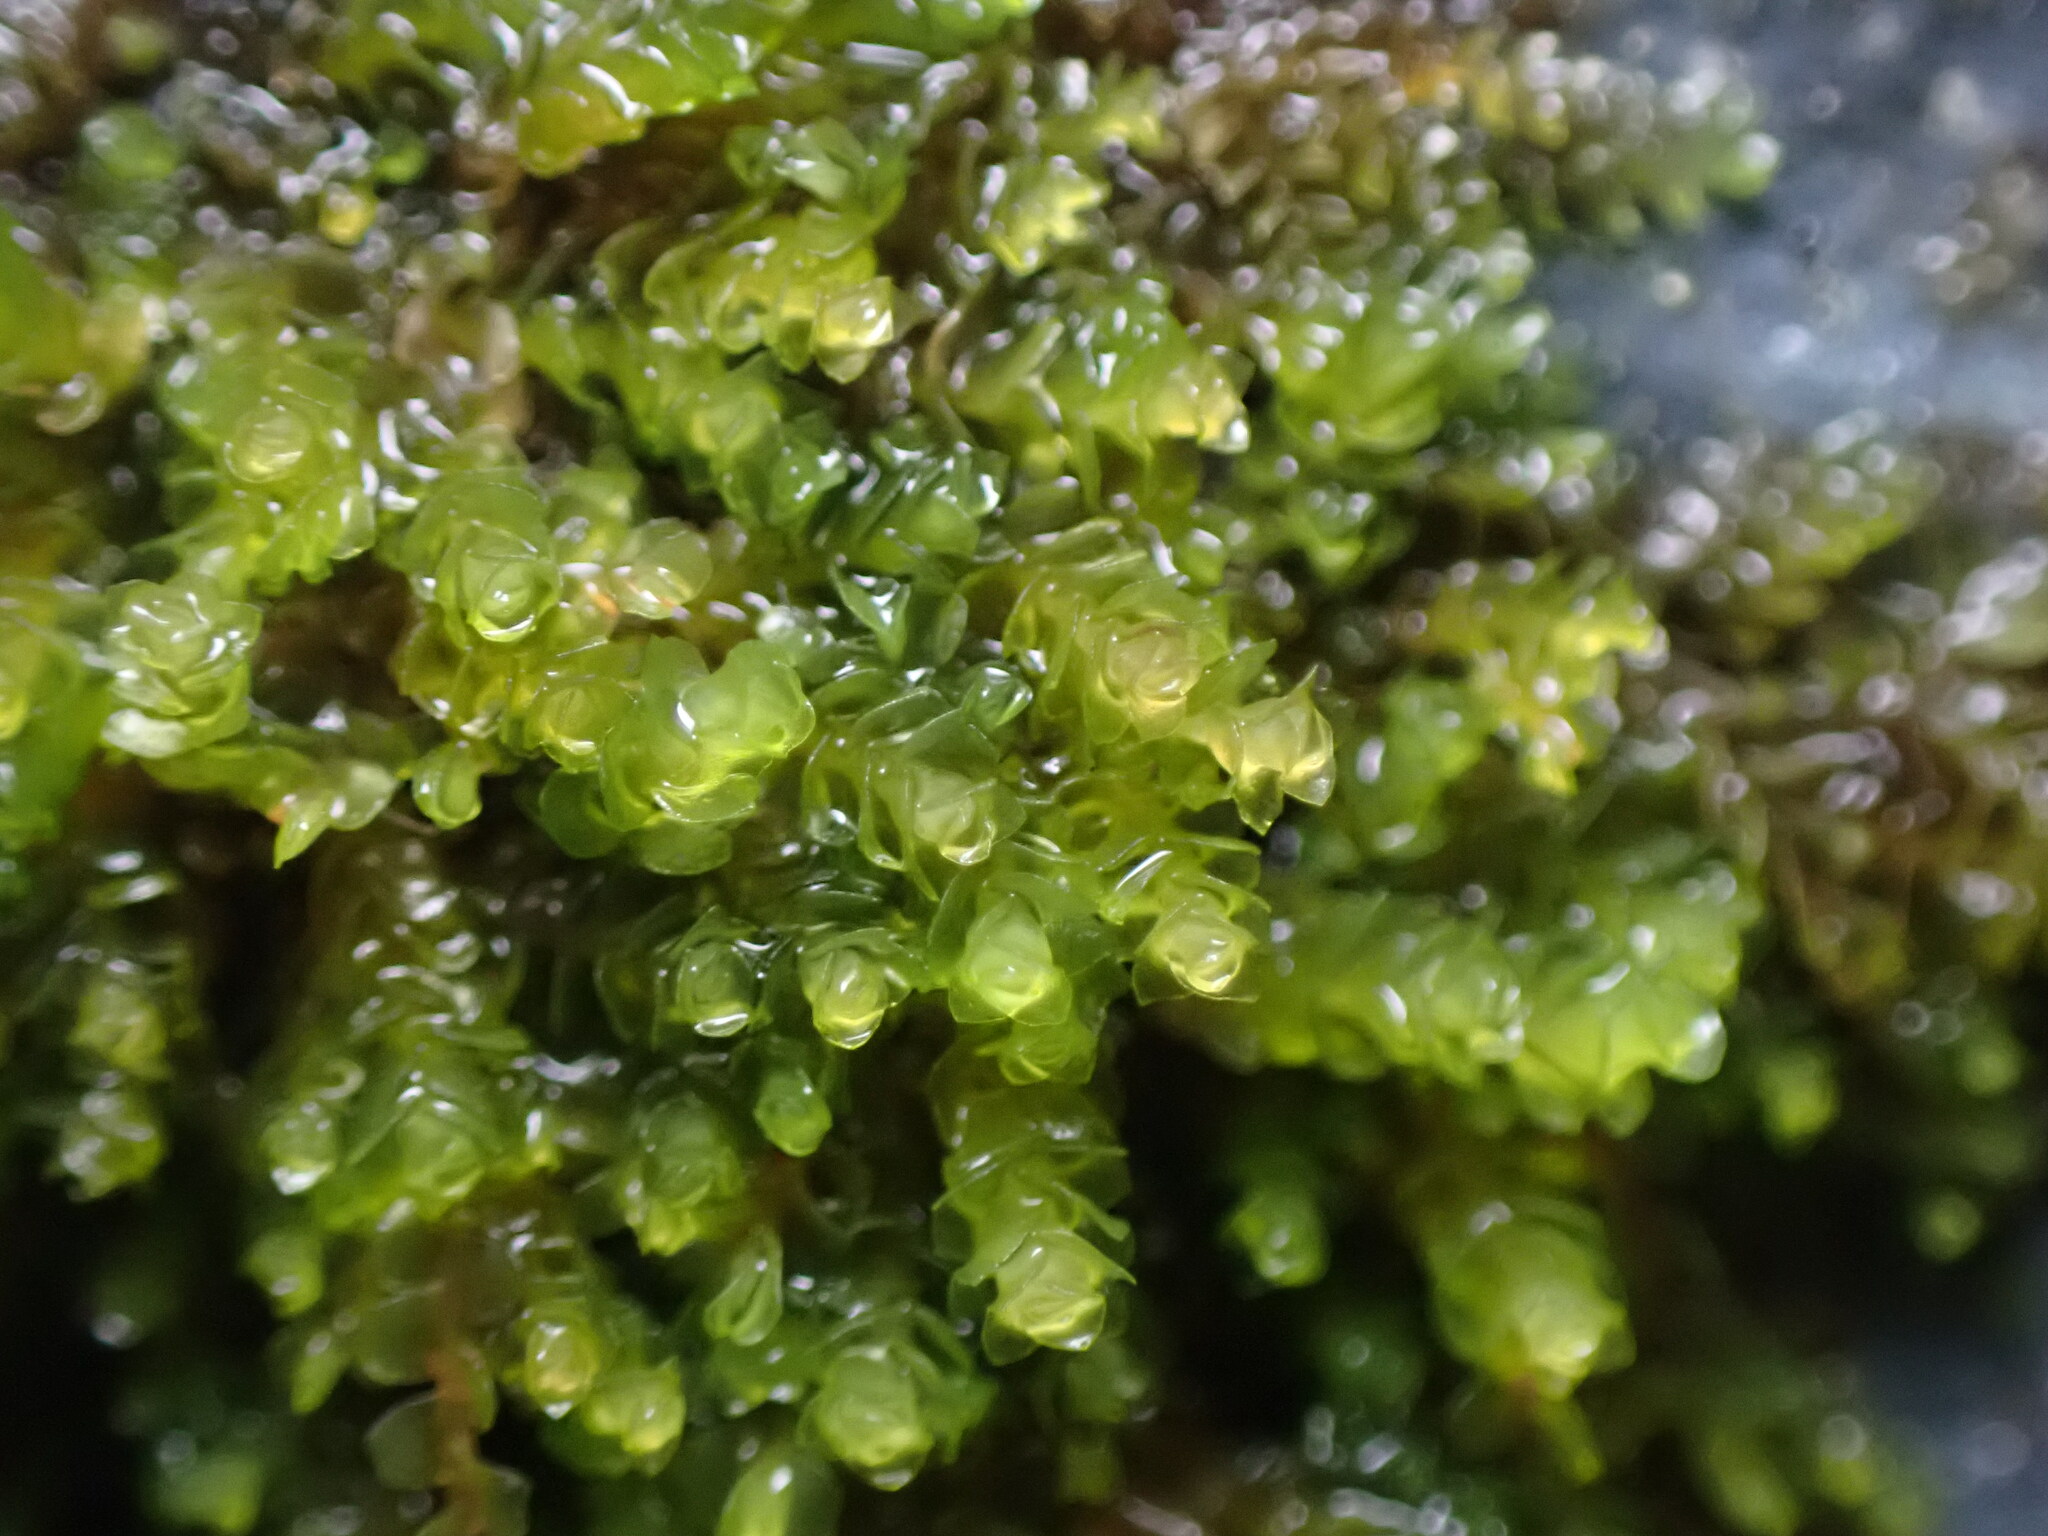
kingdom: Plantae
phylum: Marchantiophyta
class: Jungermanniopsida
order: Jungermanniales
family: Gymnomitriaceae
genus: Marsupella
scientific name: Marsupella emarginata
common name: Notched rustwort
